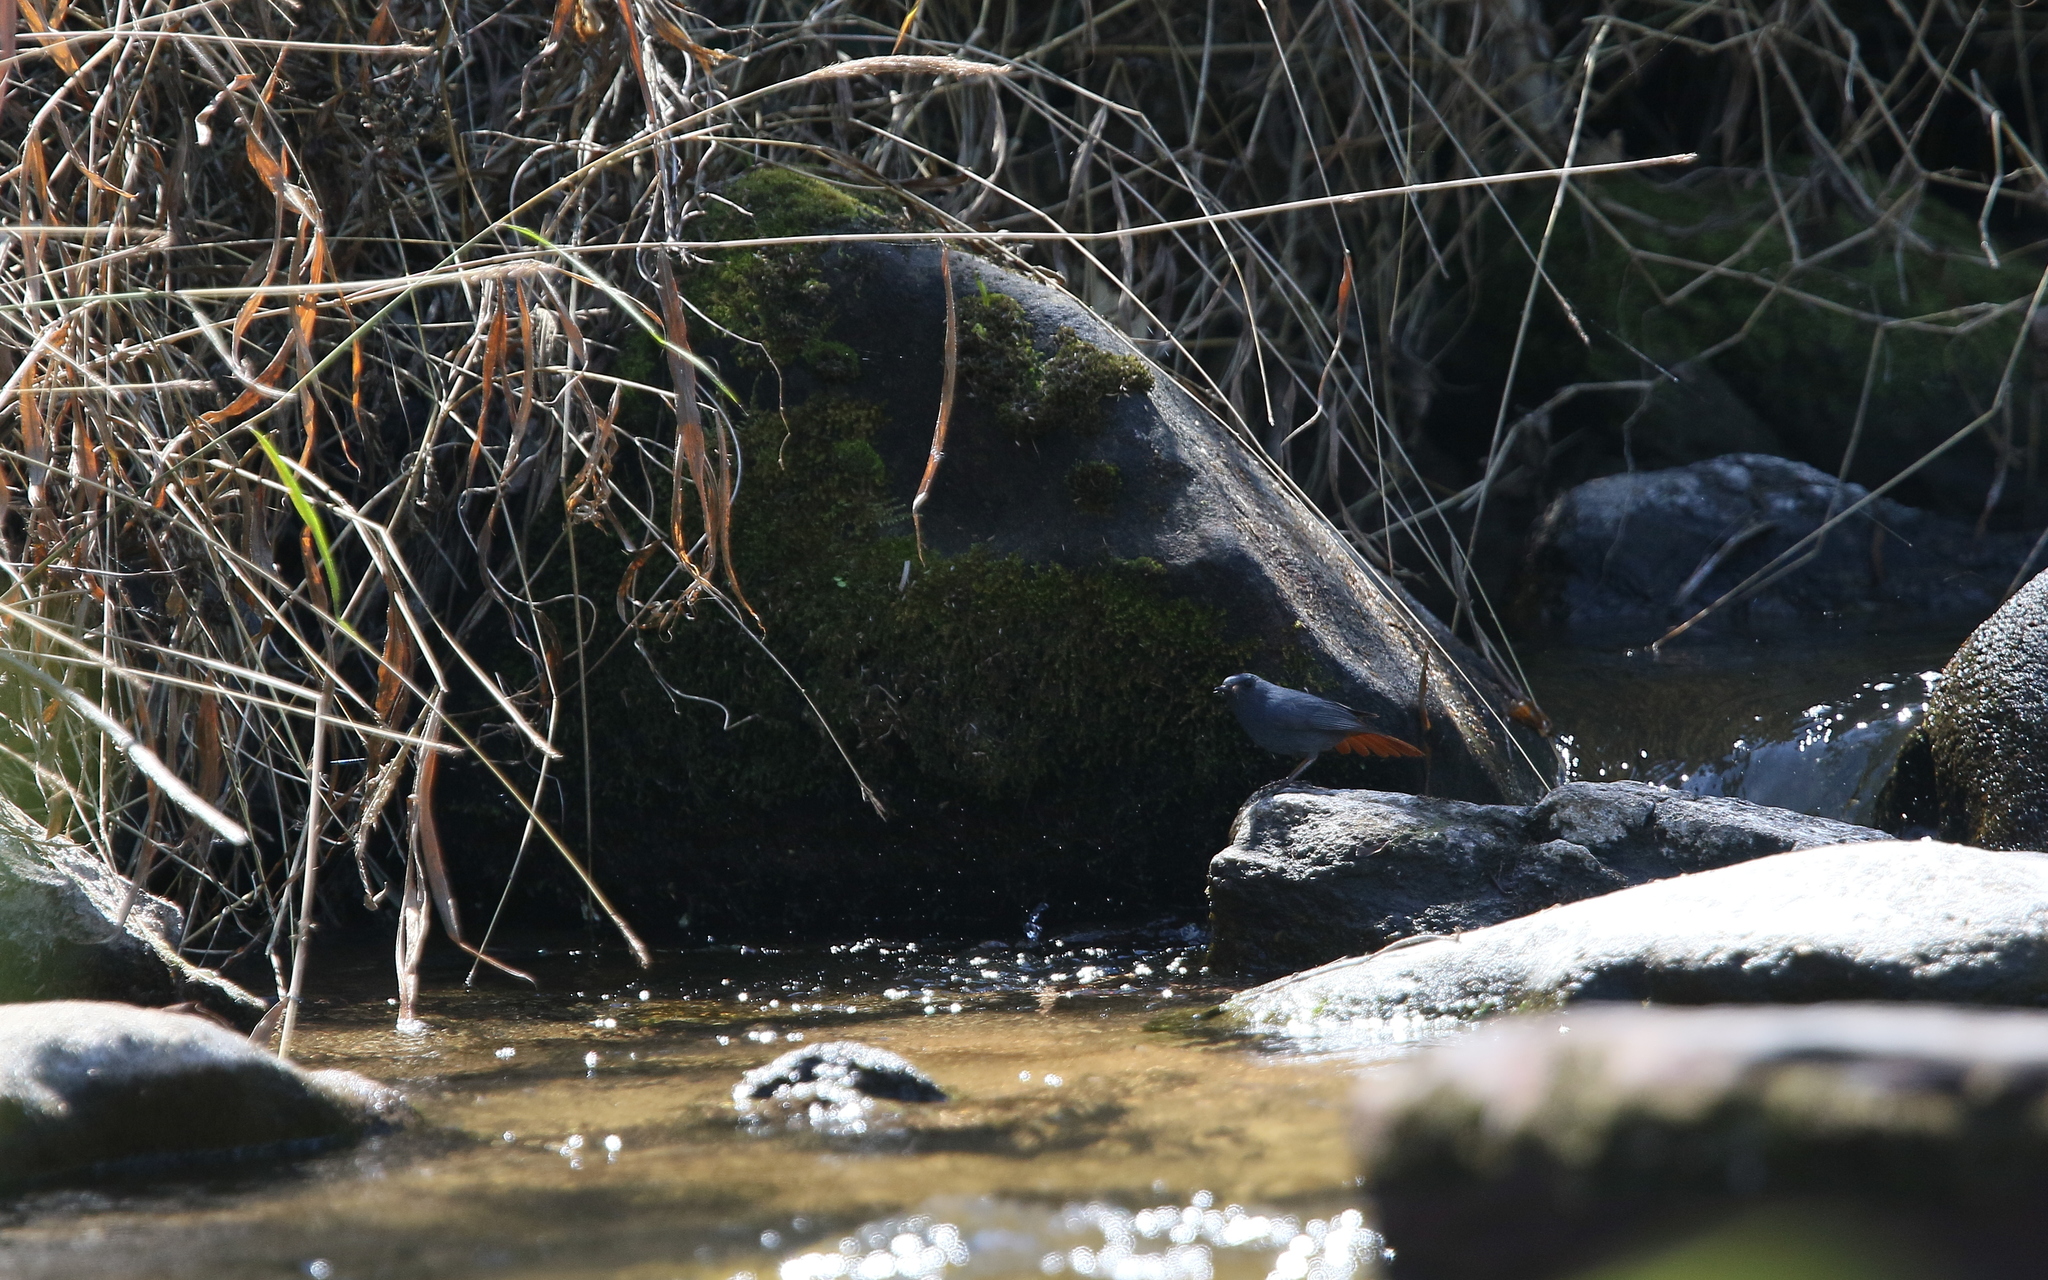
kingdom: Animalia
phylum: Chordata
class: Aves
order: Passeriformes
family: Muscicapidae
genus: Phoenicurus
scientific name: Phoenicurus fuliginosus
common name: Plumbeous water redstart
